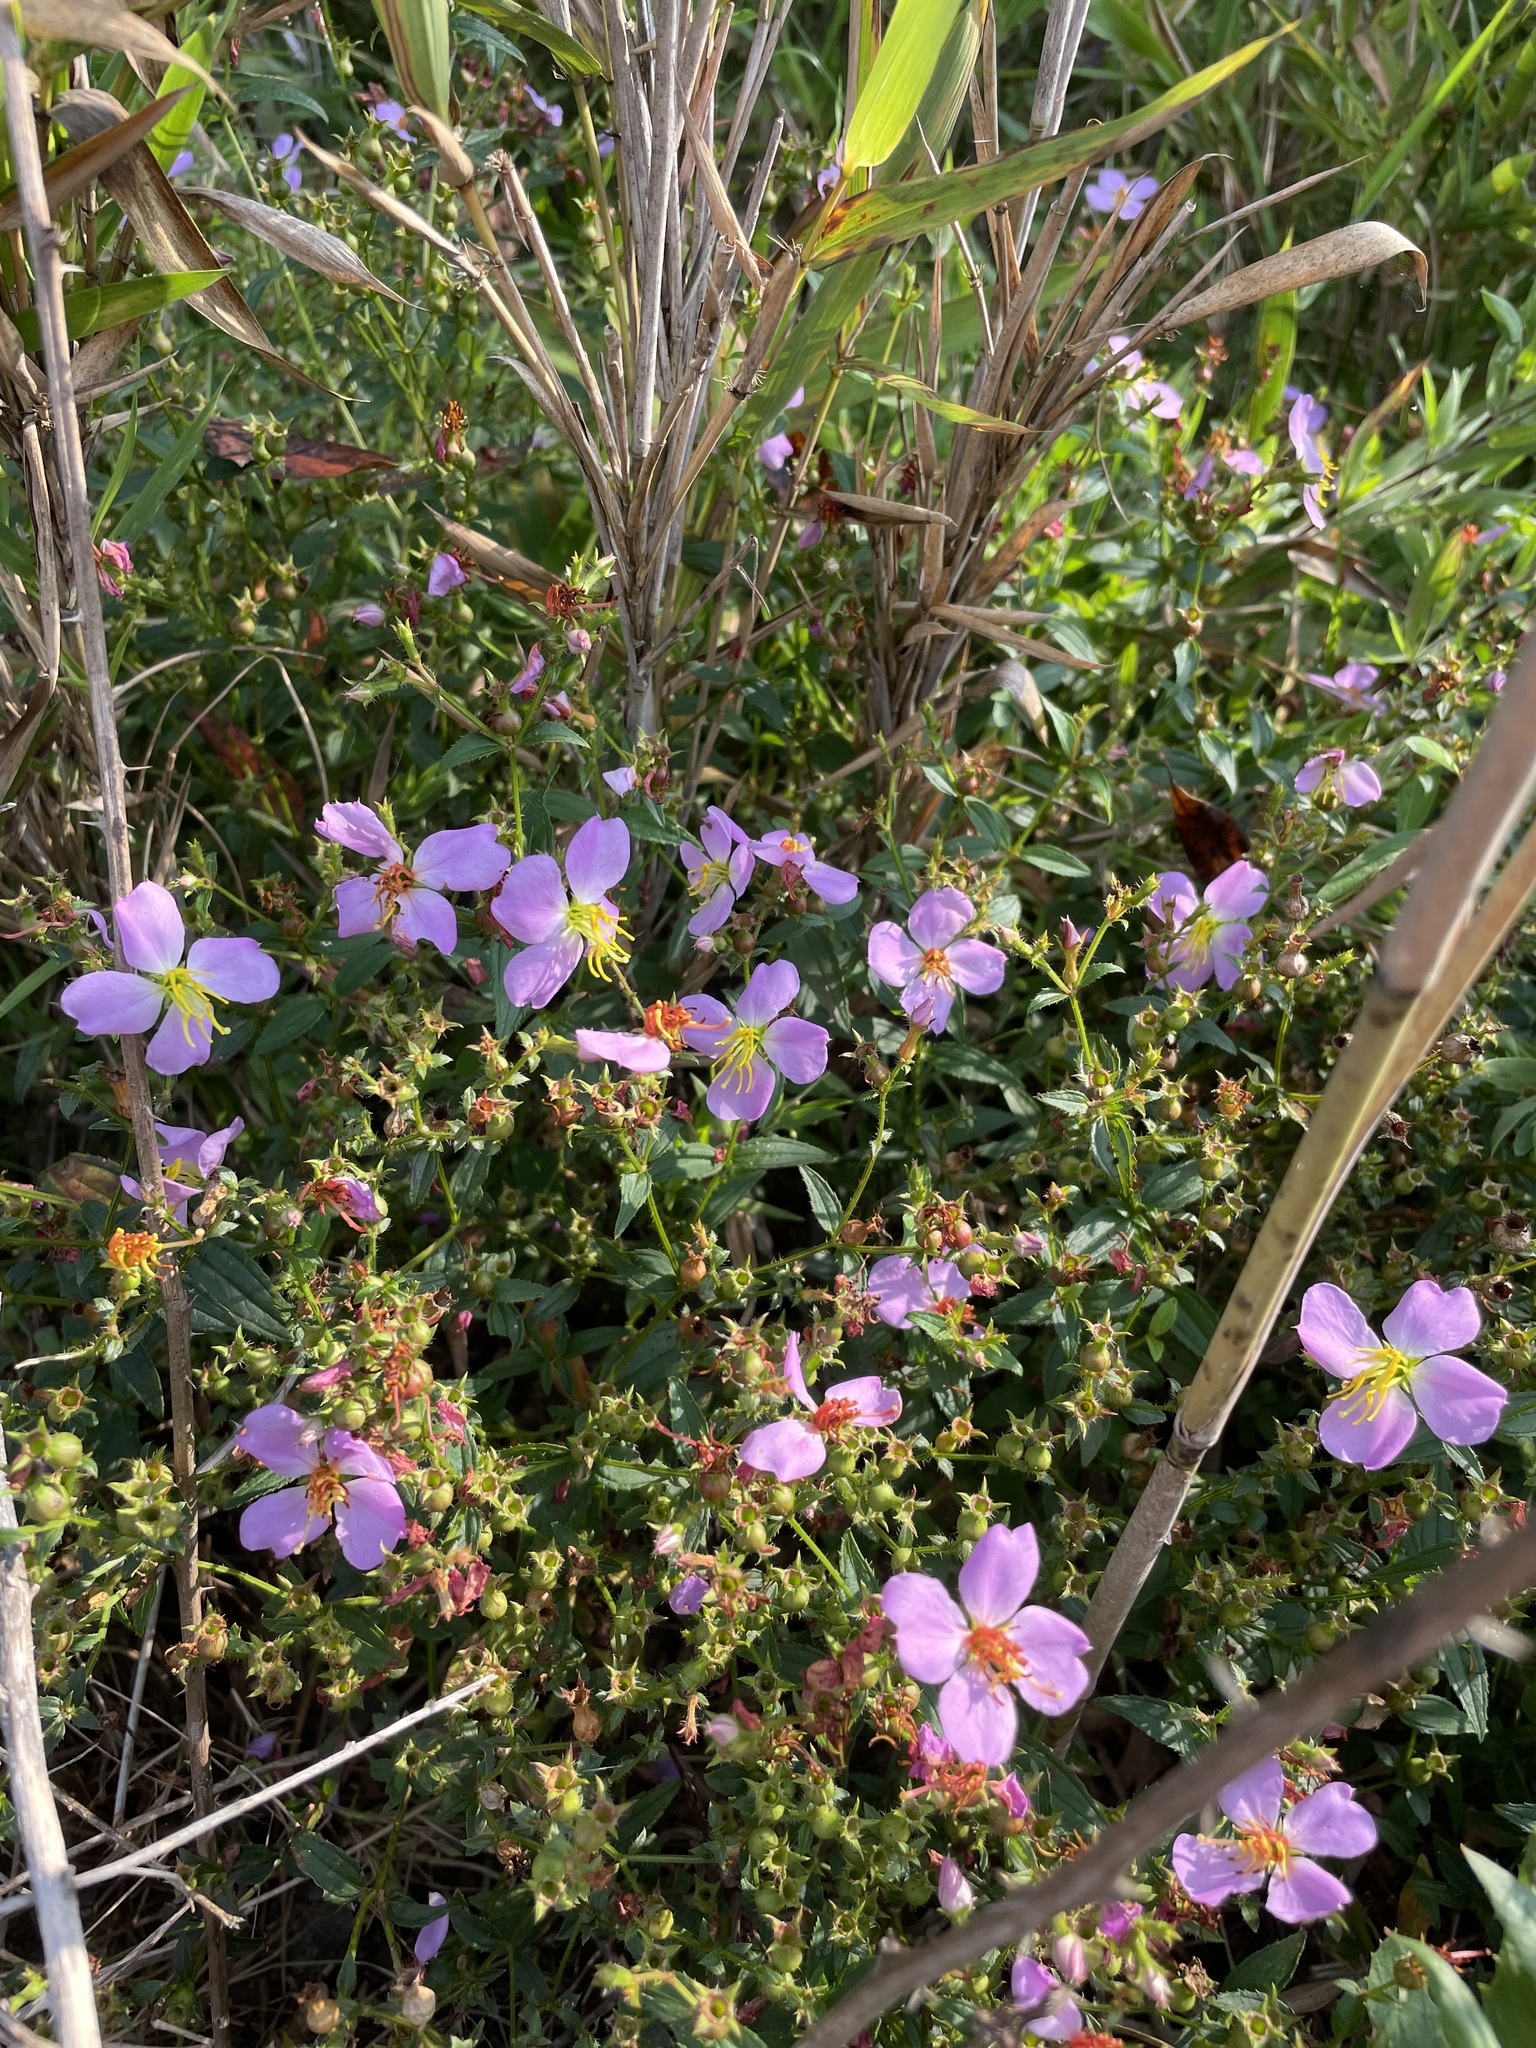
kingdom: Plantae
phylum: Tracheophyta
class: Magnoliopsida
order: Myrtales
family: Melastomataceae
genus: Rhexia
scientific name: Rhexia mariana
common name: Dull meadow-pitcher
